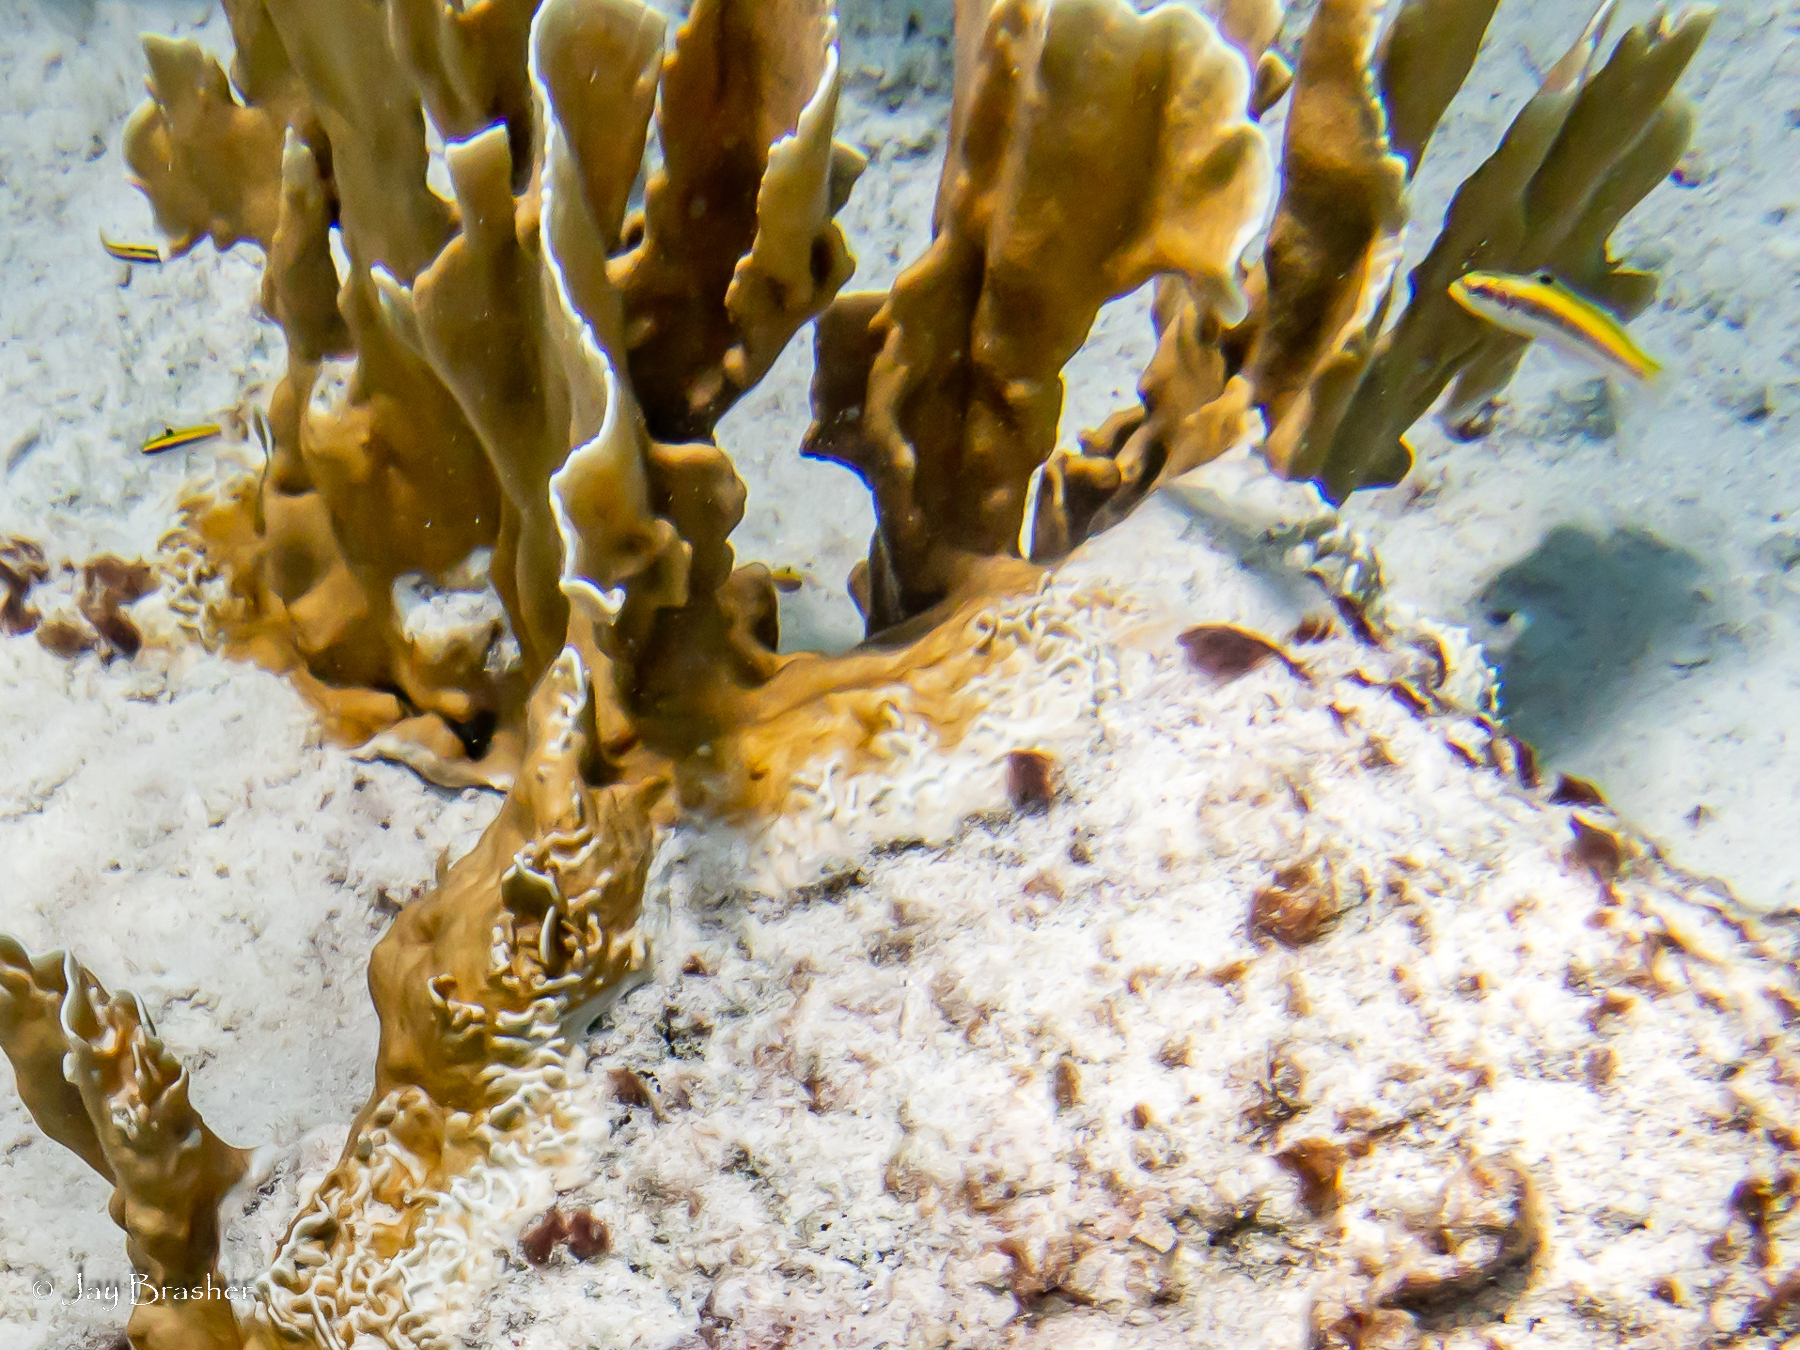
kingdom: Animalia
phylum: Cnidaria
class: Hydrozoa
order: Anthoathecata
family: Milleporidae
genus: Millepora
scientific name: Millepora complanata
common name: Bladed fire coral
